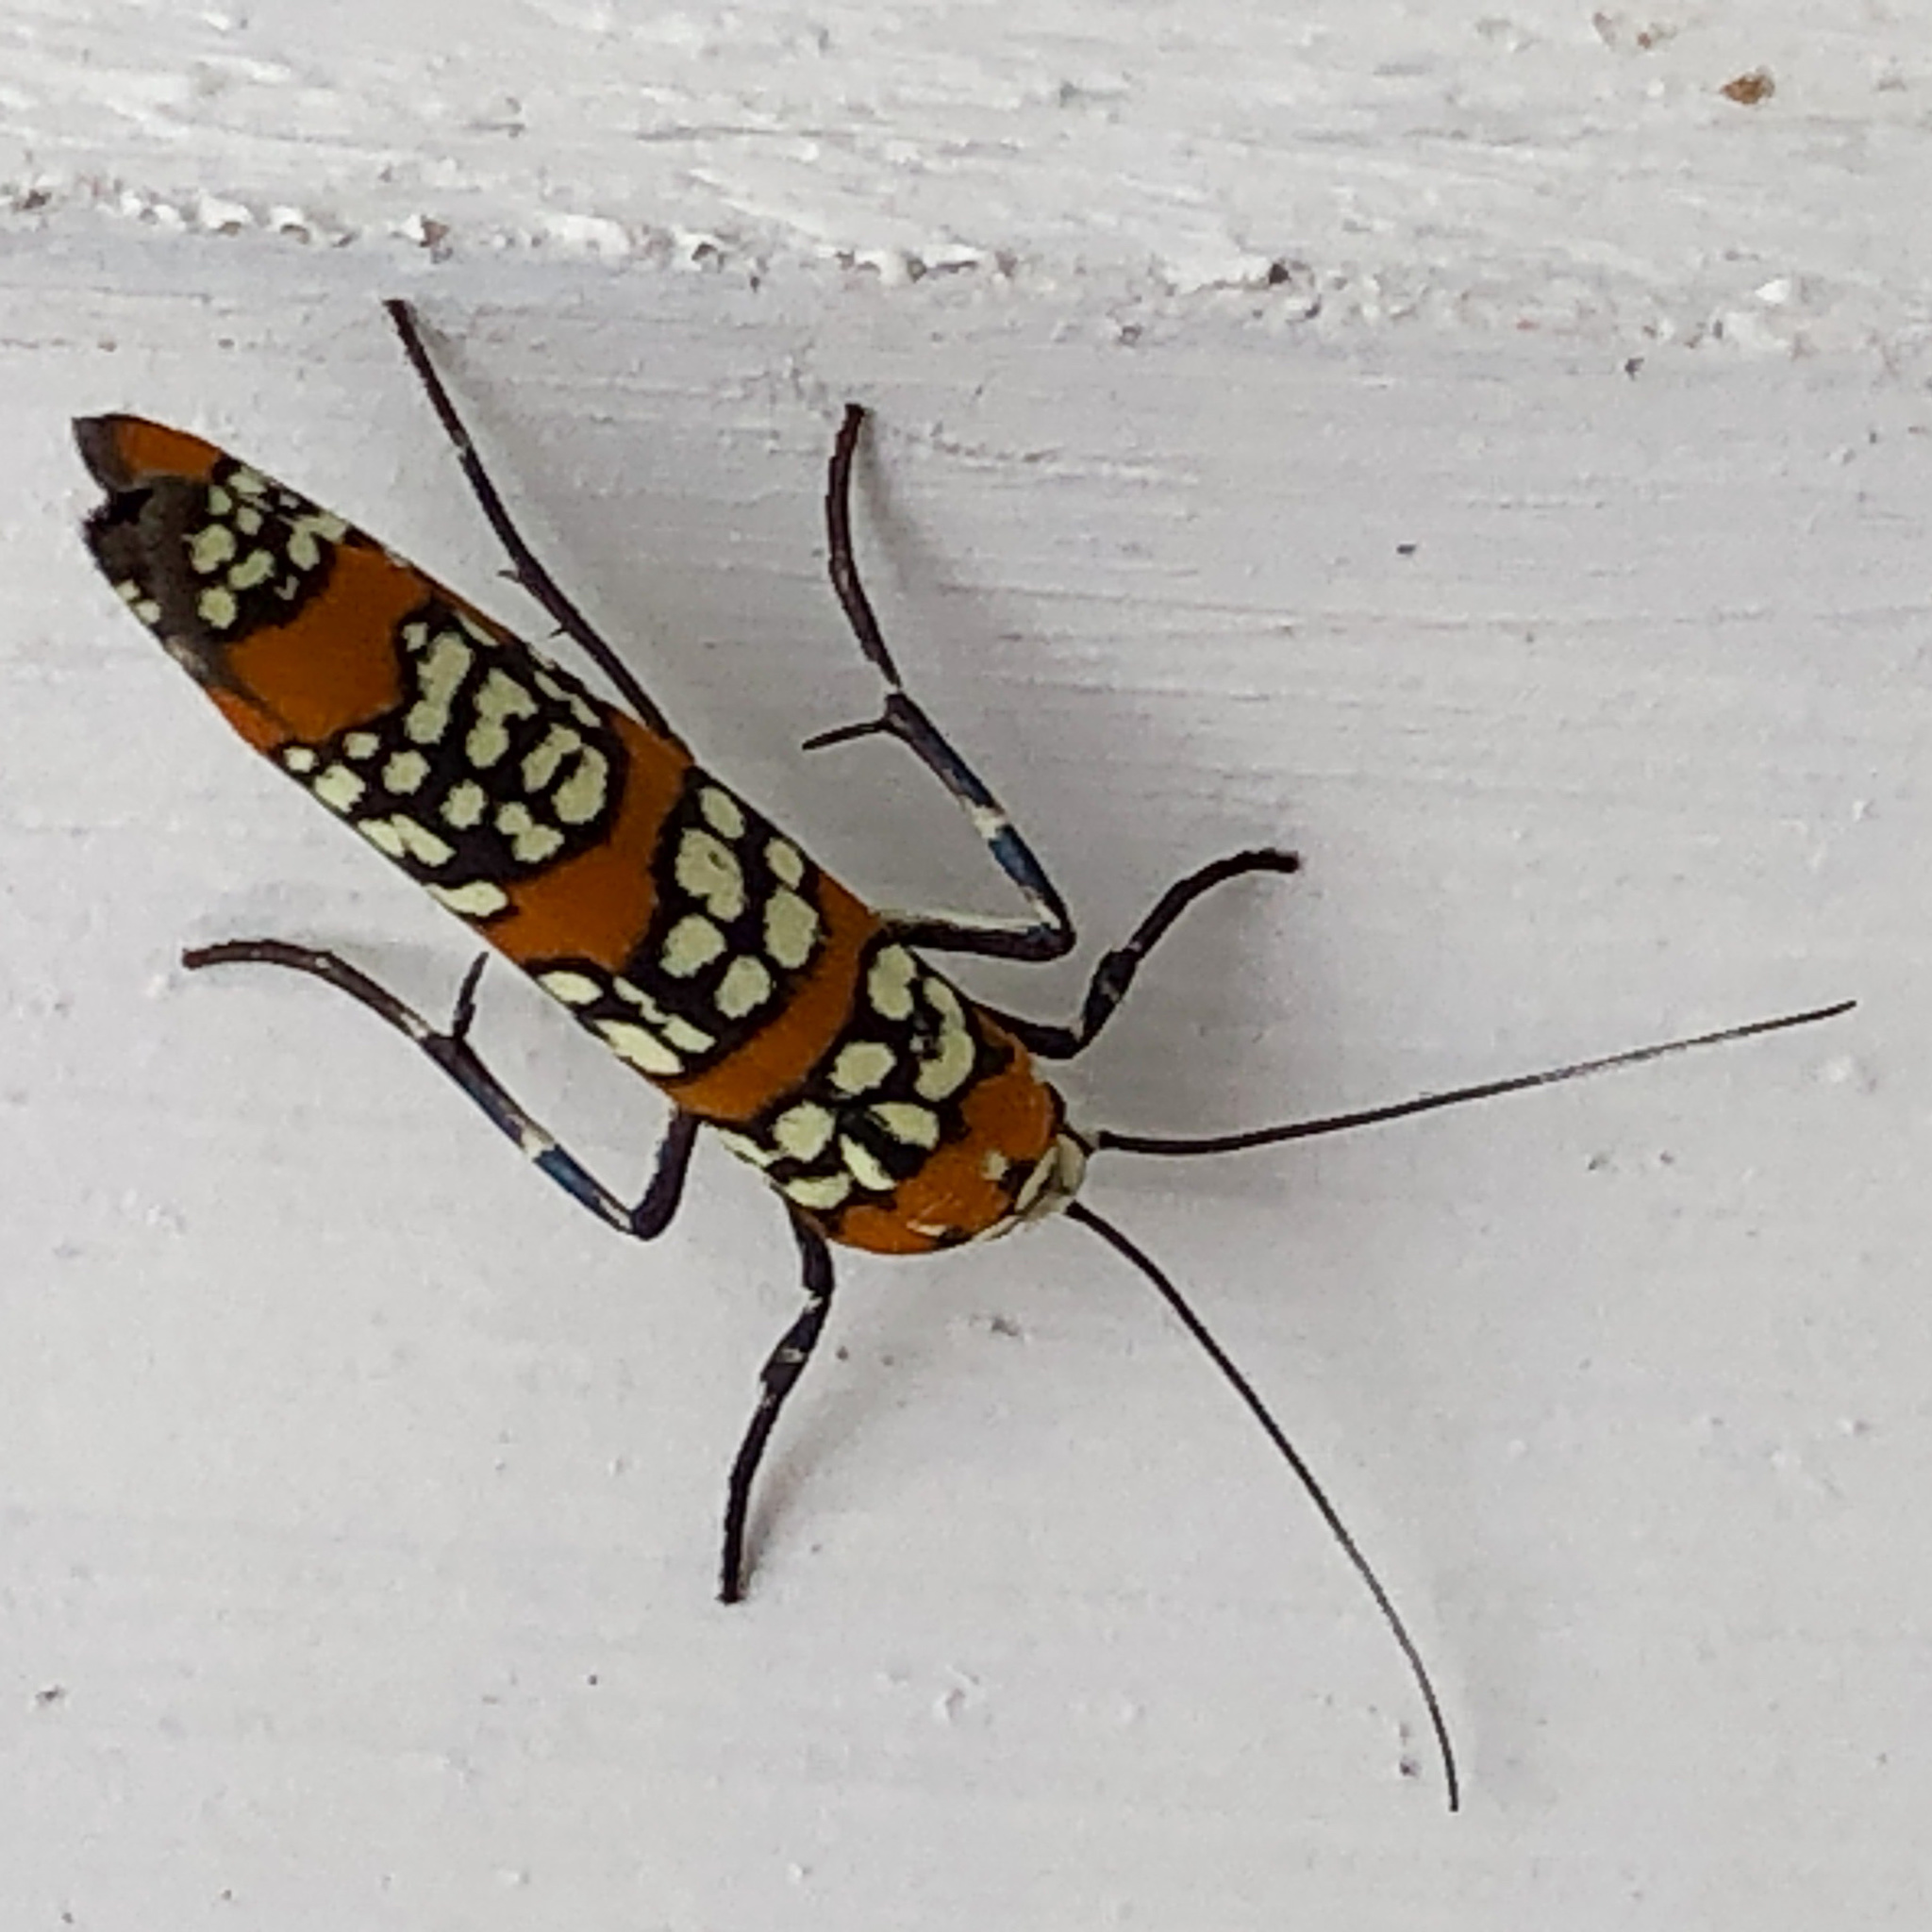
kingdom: Animalia
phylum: Arthropoda
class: Insecta
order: Lepidoptera
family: Attevidae
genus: Atteva
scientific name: Atteva punctella
